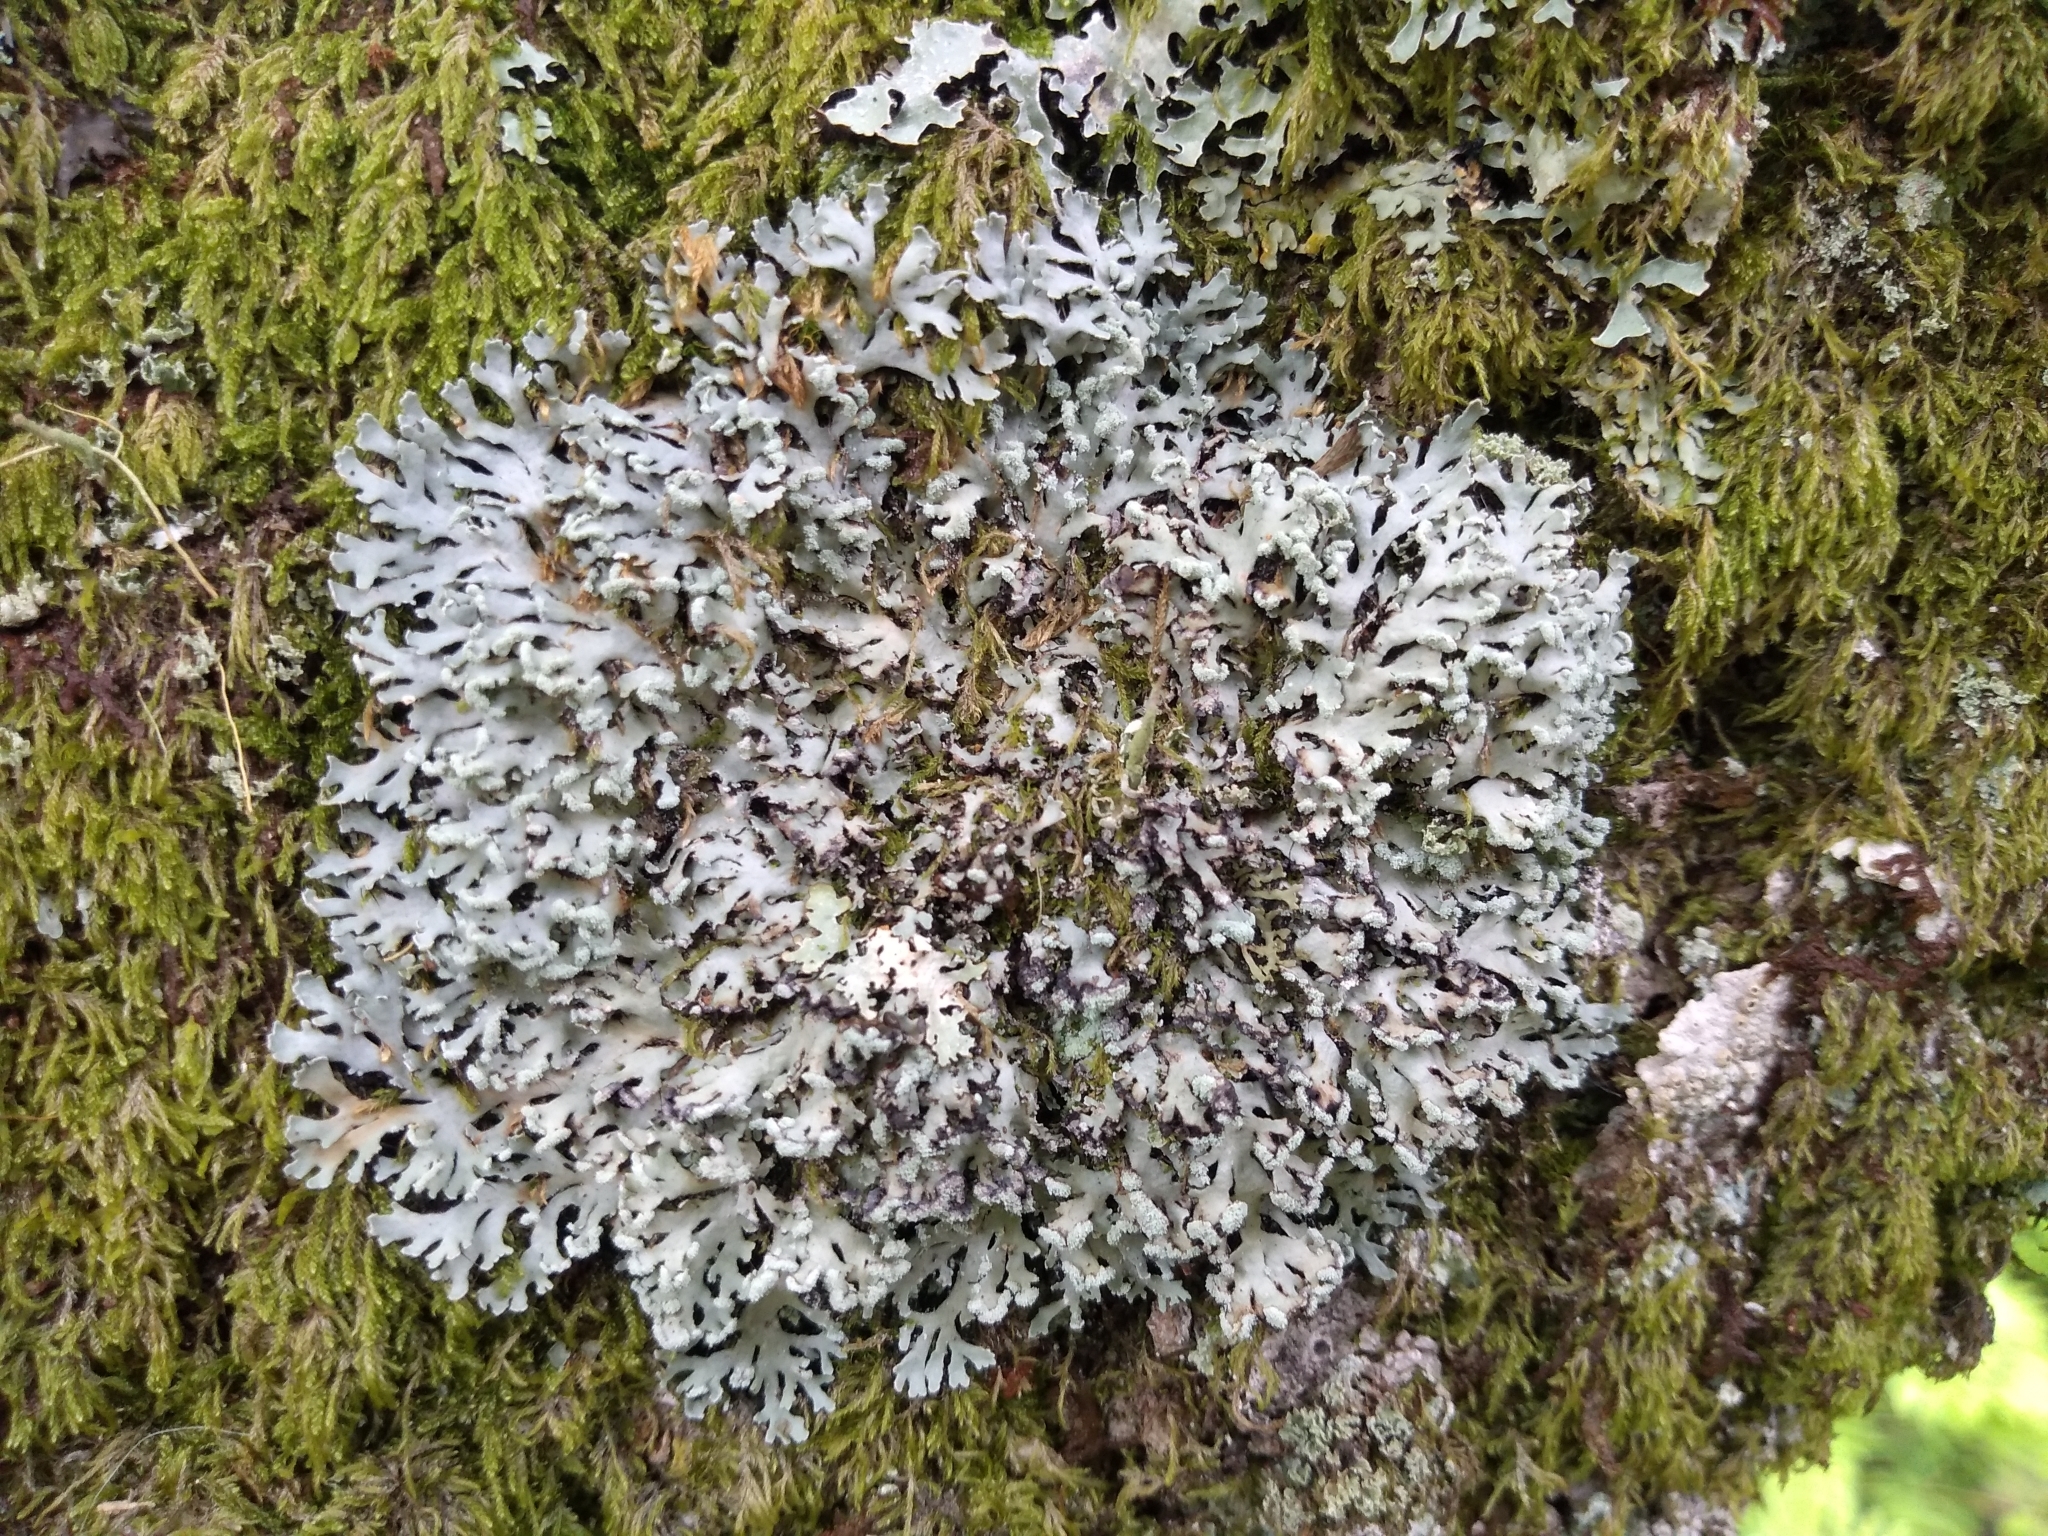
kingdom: Fungi
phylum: Ascomycota
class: Lecanoromycetes
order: Caliciales
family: Physciaceae
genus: Polyblastidium
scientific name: Polyblastidium neglectum
